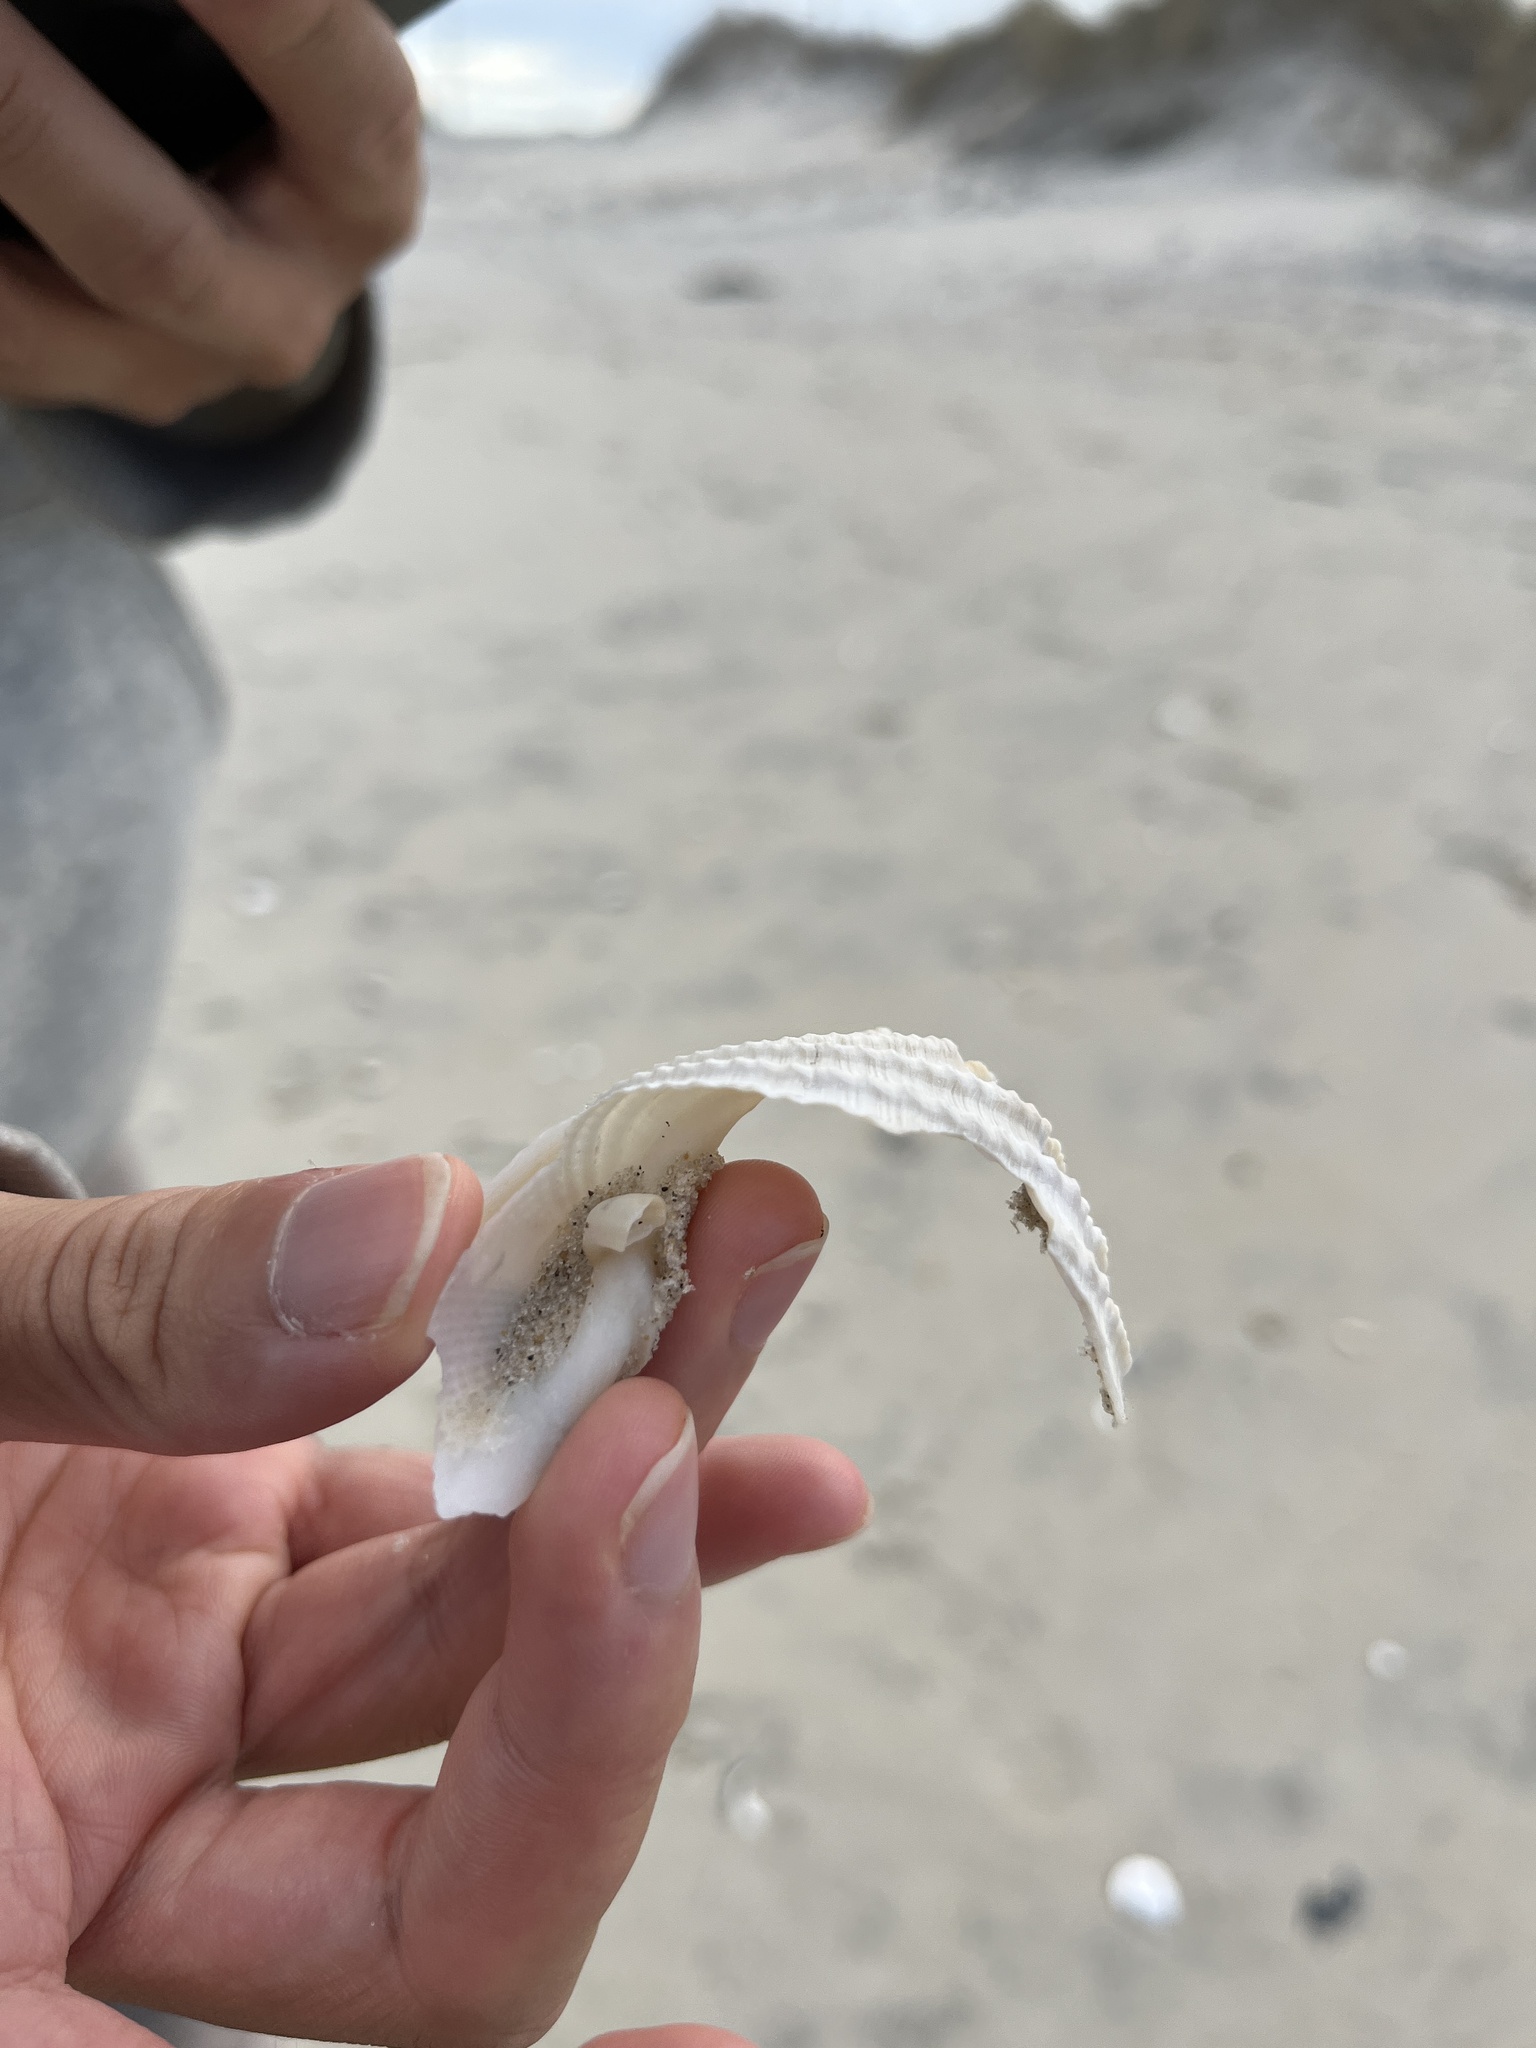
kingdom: Animalia
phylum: Mollusca
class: Bivalvia
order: Myida
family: Pholadidae
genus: Cyrtopleura
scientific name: Cyrtopleura costata
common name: Angel wing
